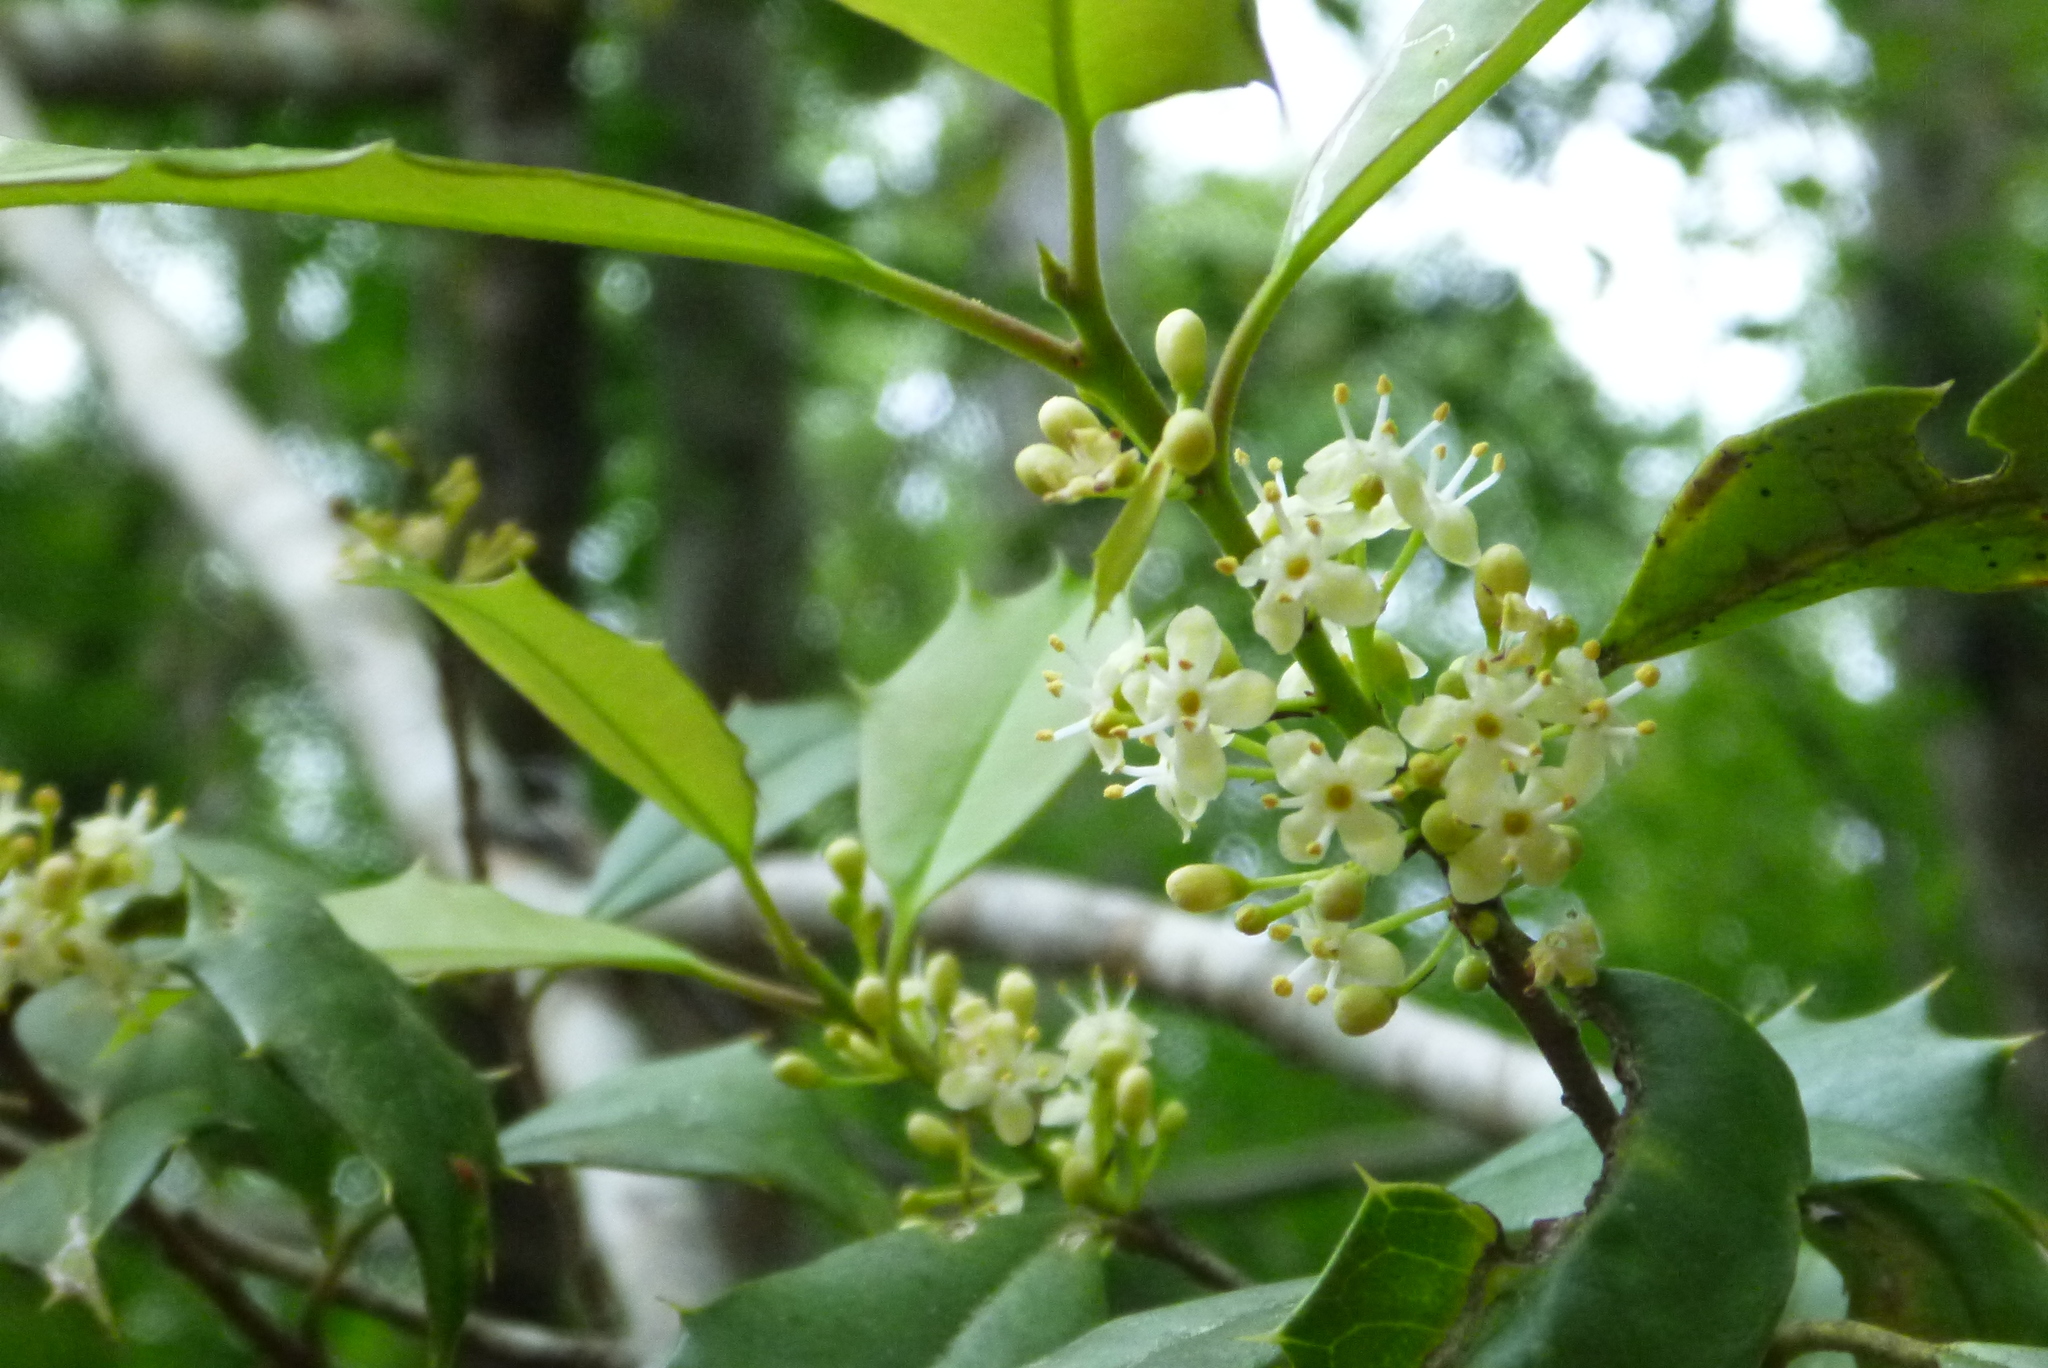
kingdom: Plantae
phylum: Tracheophyta
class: Magnoliopsida
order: Aquifoliales
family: Aquifoliaceae
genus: Ilex
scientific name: Ilex opaca
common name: American holly
